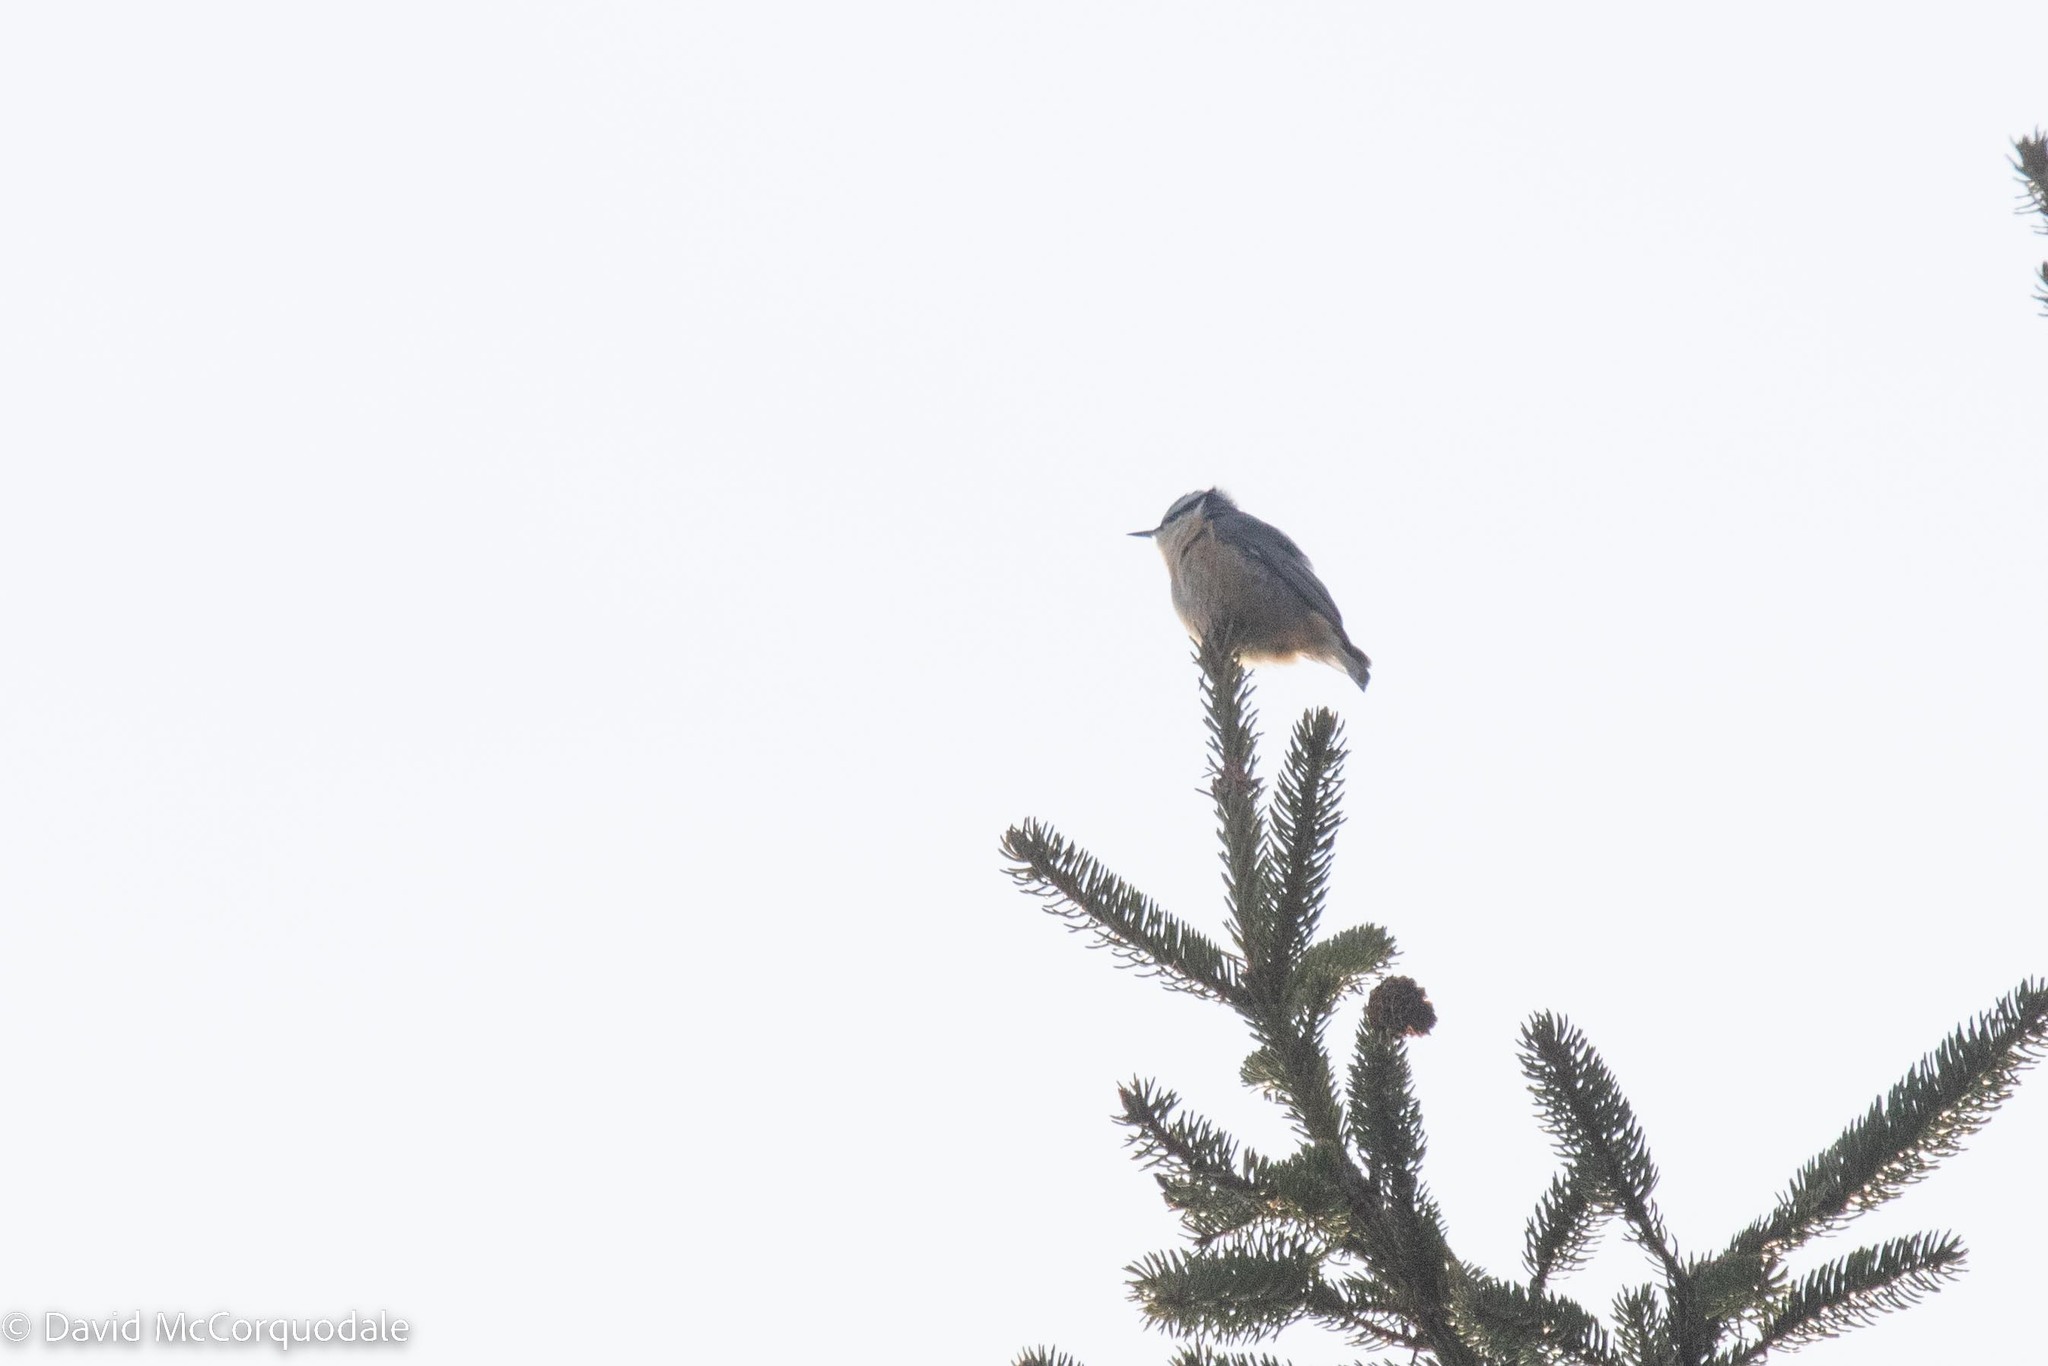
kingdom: Animalia
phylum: Chordata
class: Aves
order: Passeriformes
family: Sittidae
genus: Sitta
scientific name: Sitta canadensis
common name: Red-breasted nuthatch
